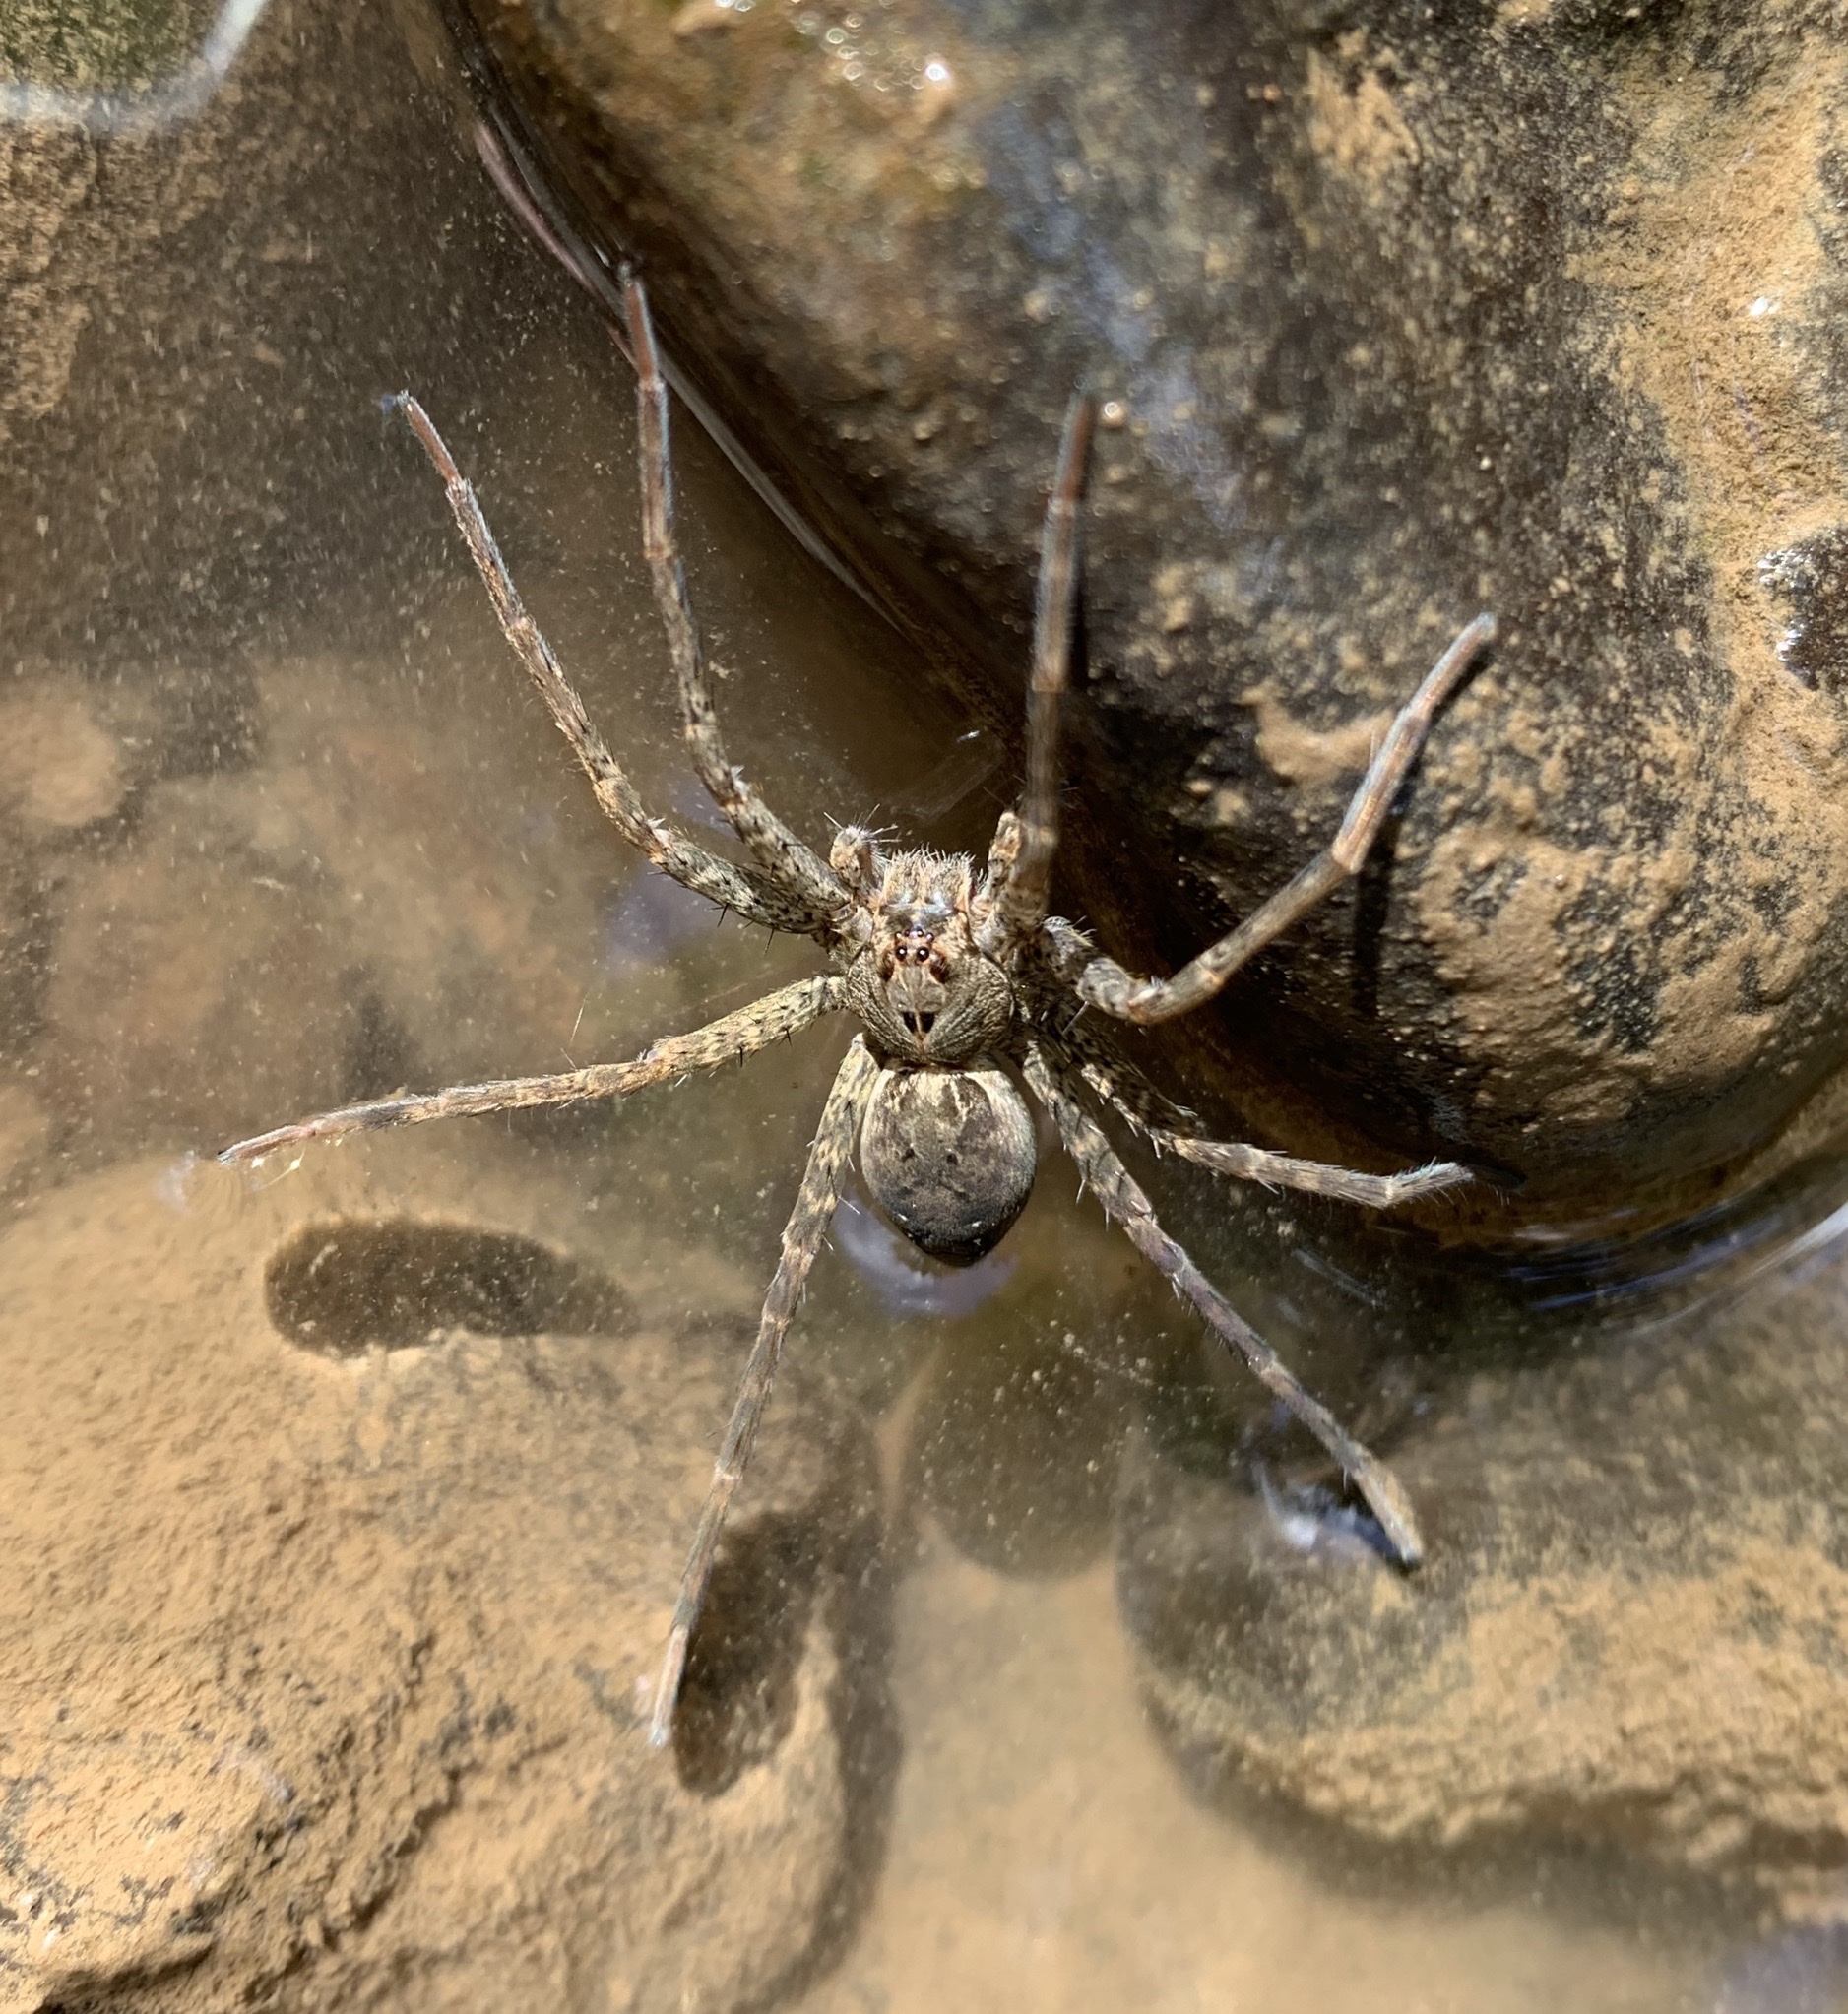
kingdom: Animalia
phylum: Arthropoda
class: Arachnida
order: Araneae
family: Pisauridae
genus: Dolomedes
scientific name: Dolomedes vittatus
